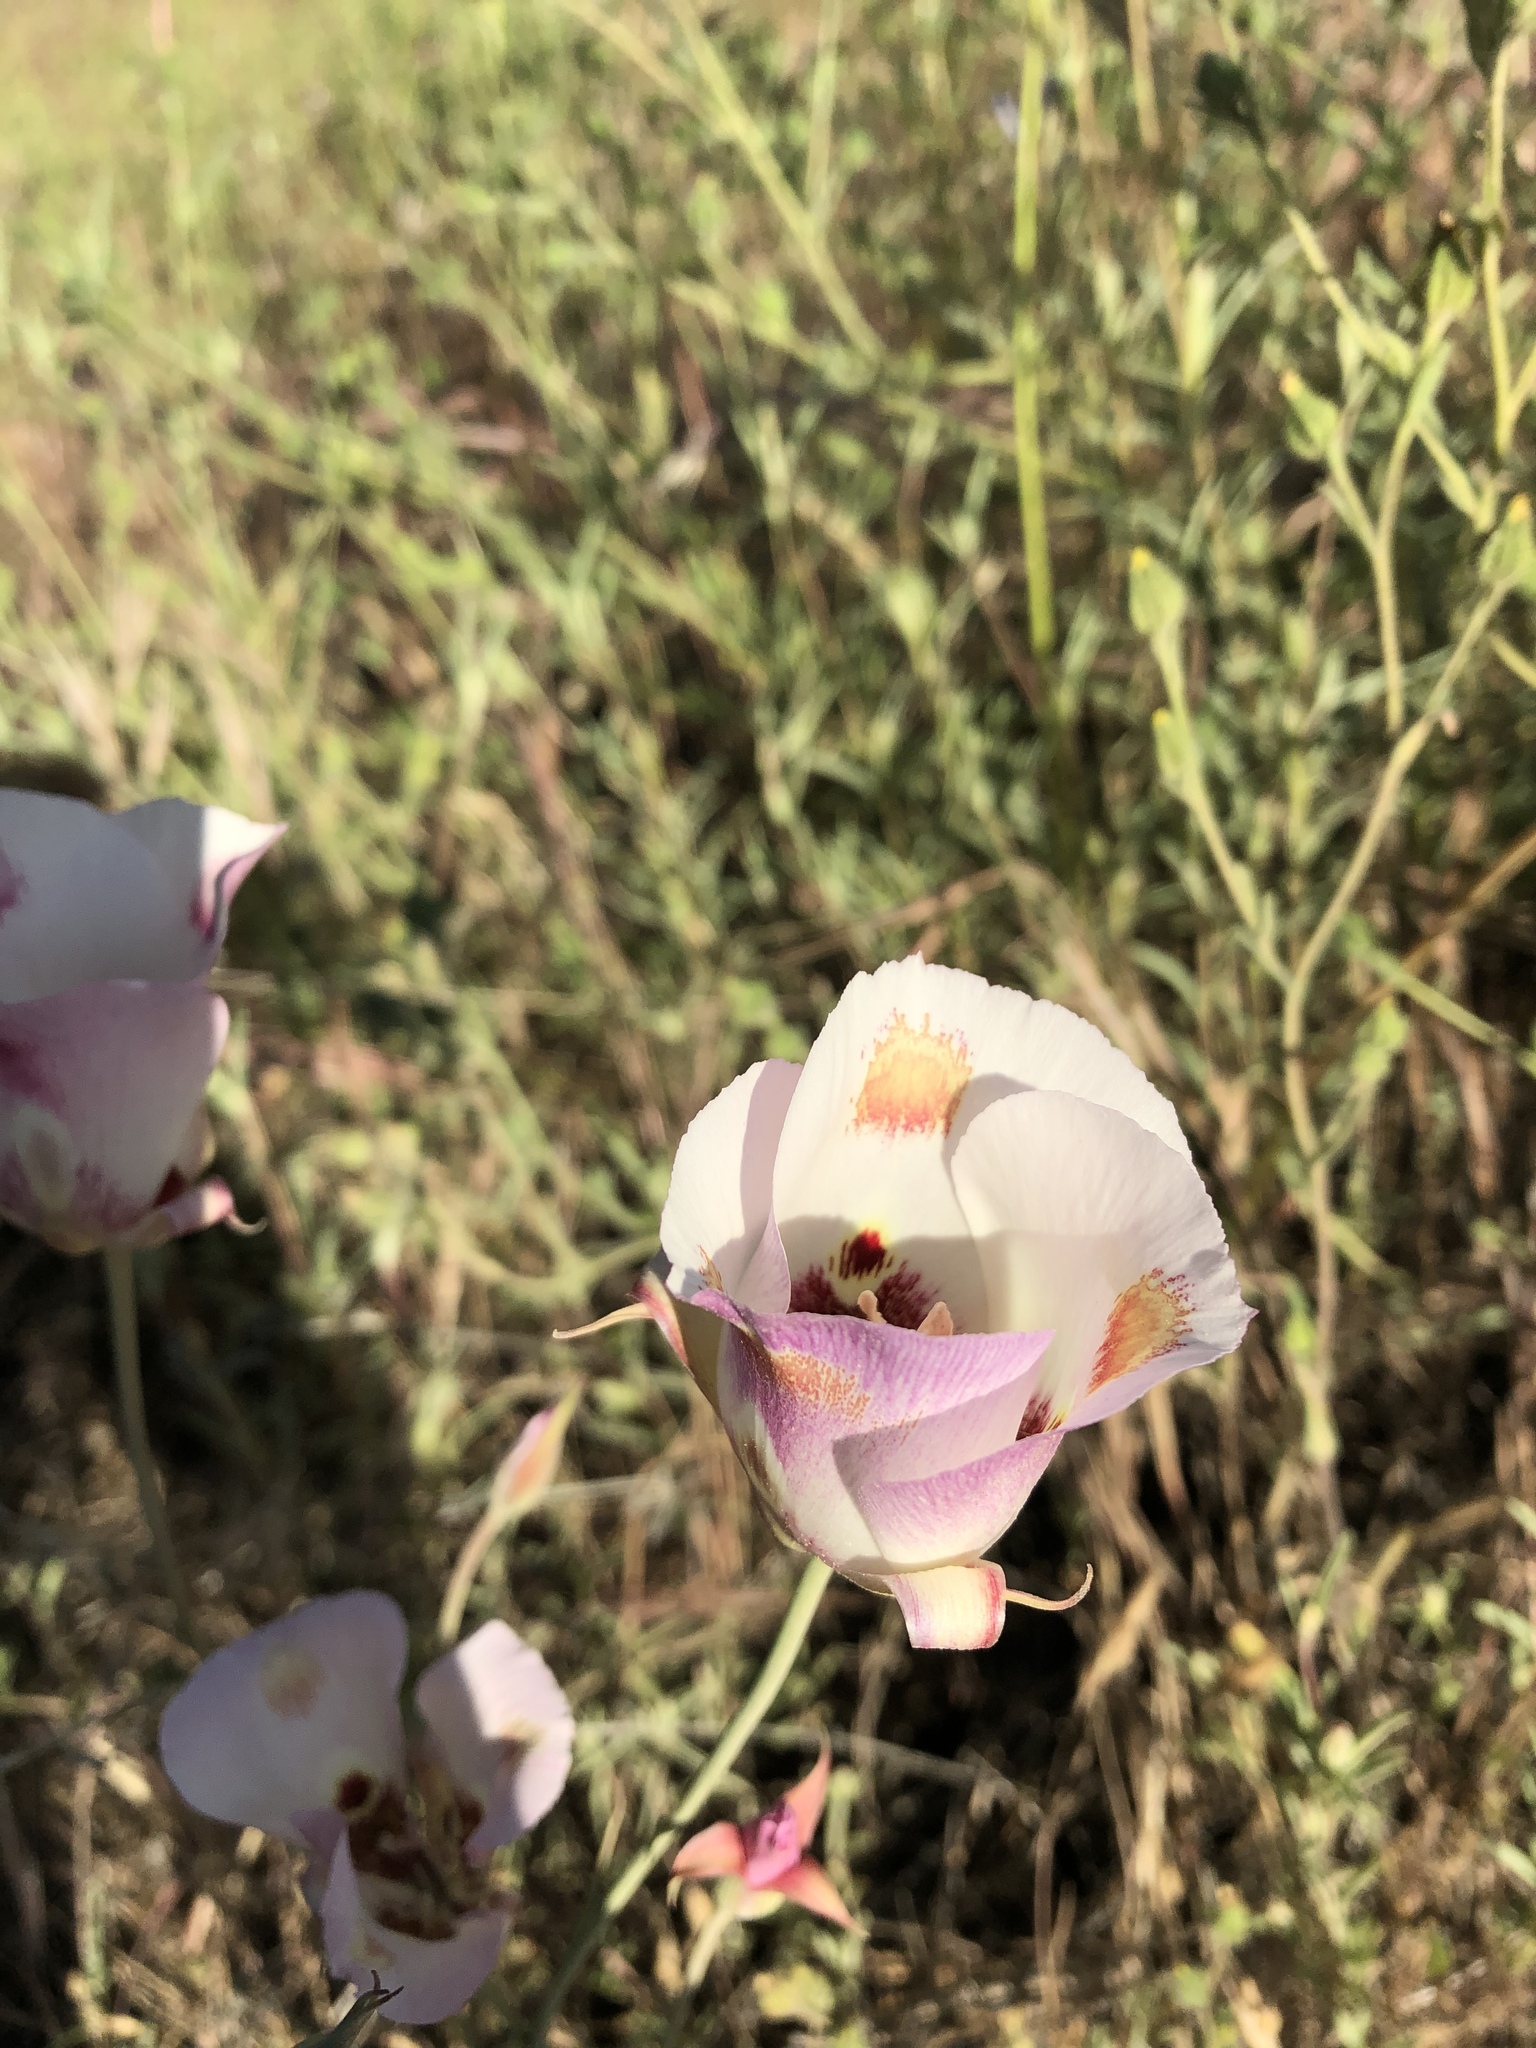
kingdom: Plantae
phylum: Tracheophyta
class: Liliopsida
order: Liliales
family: Liliaceae
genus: Calochortus
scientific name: Calochortus venustus
